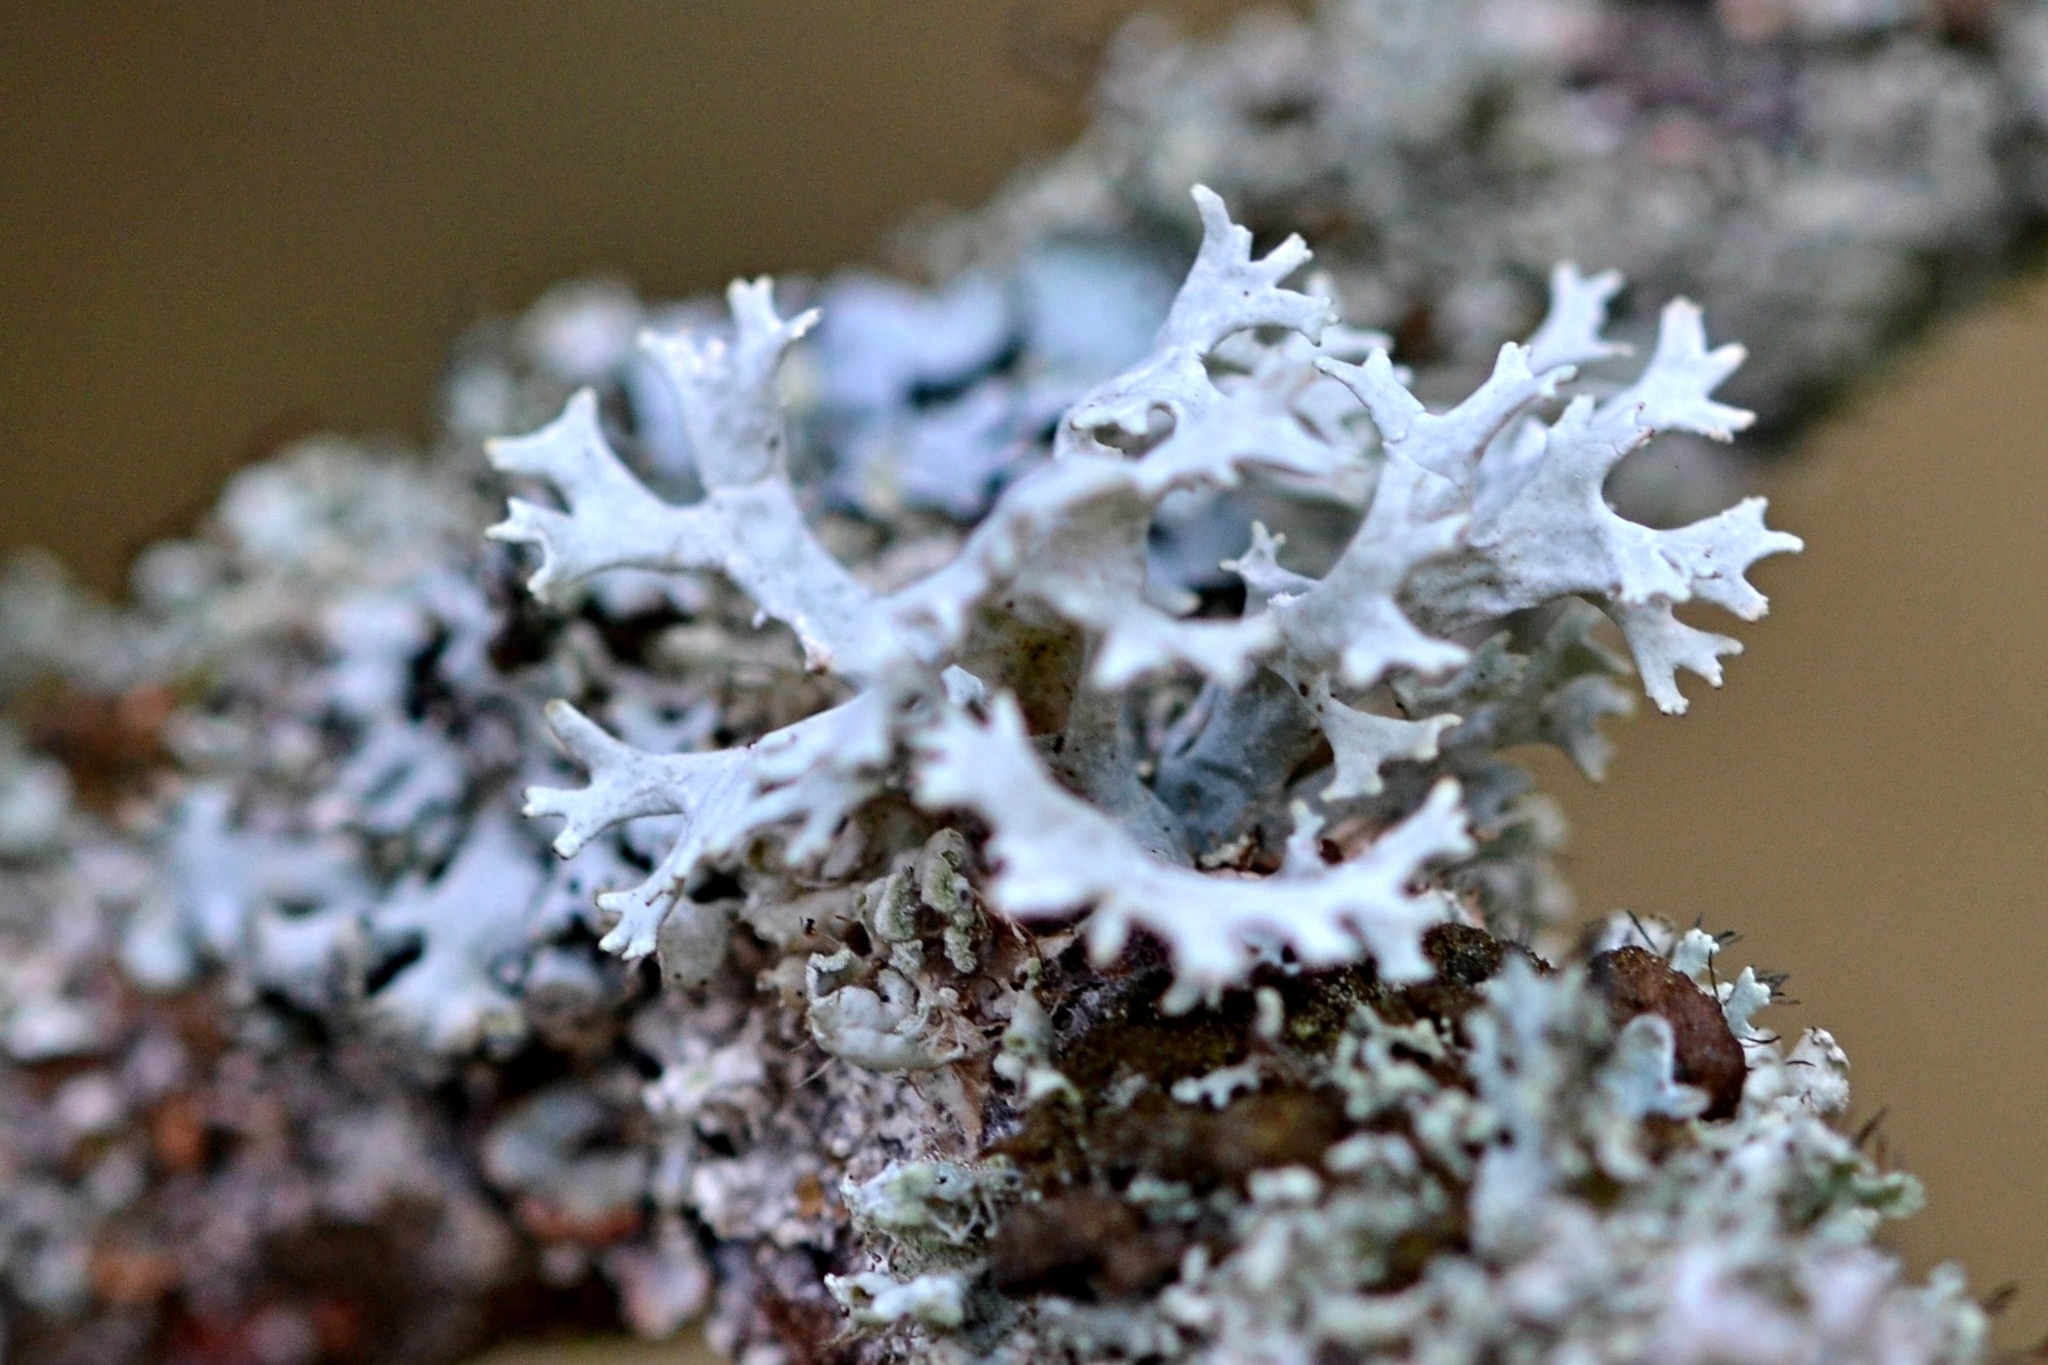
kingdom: Fungi
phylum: Ascomycota
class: Lecanoromycetes
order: Lecanorales
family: Parmeliaceae
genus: Evernia
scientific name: Evernia prunastri
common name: Oak moss
